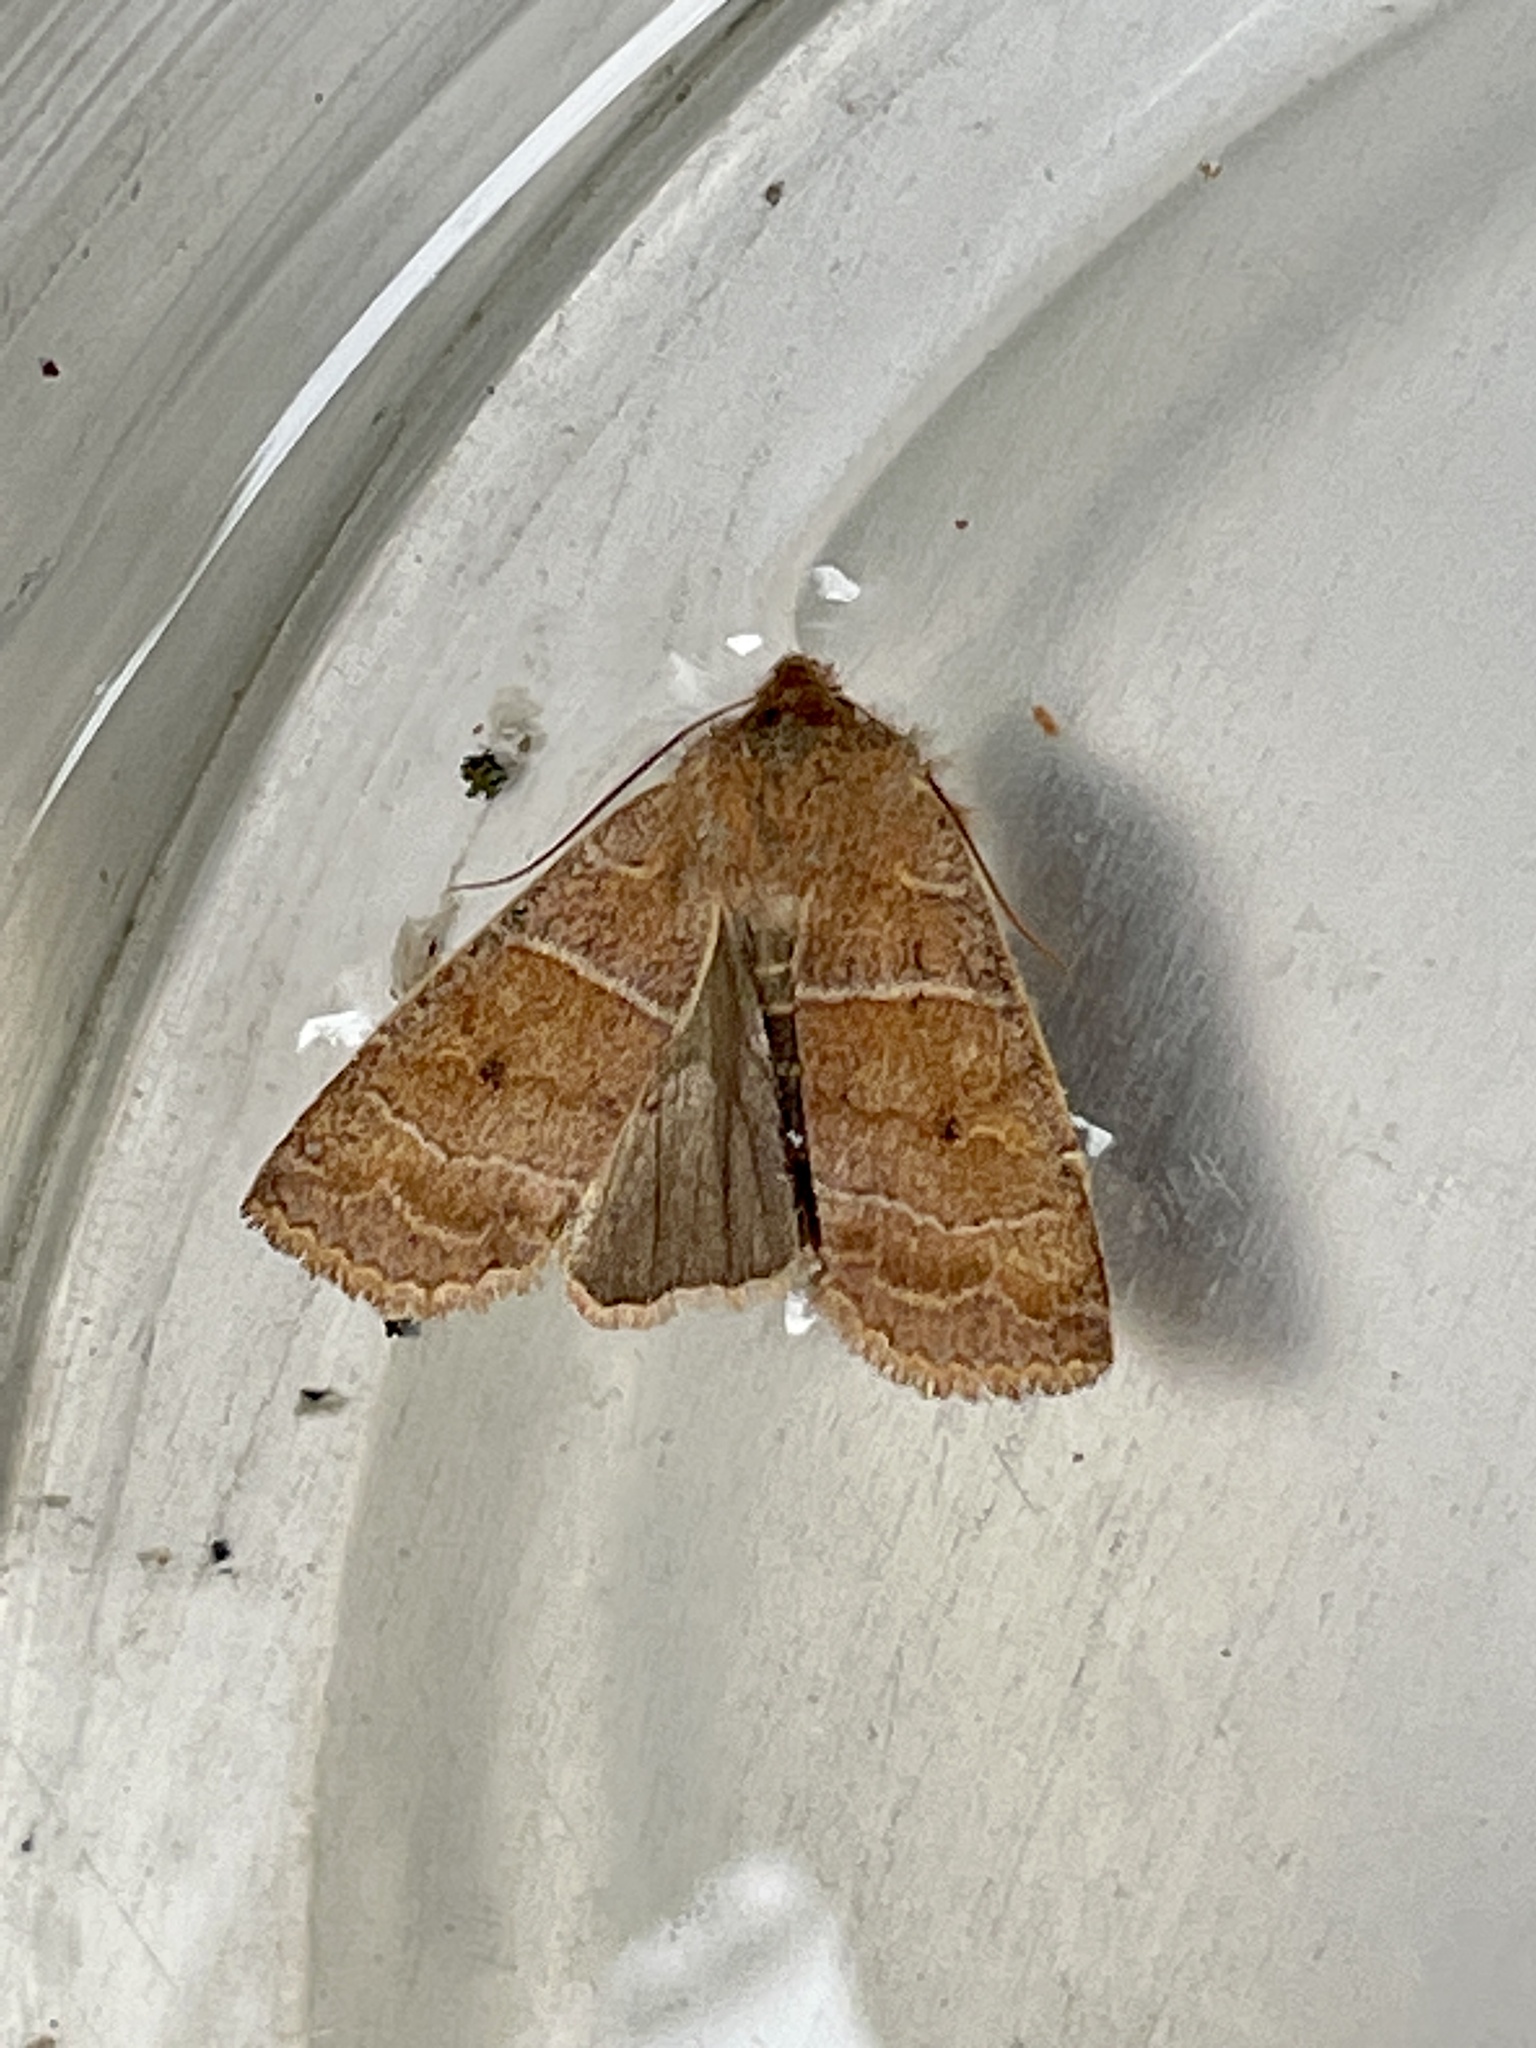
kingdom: Animalia
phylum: Arthropoda
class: Insecta
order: Lepidoptera
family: Noctuidae
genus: Eupsilia
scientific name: Eupsilia morrisoni
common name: Morrison's sallow
